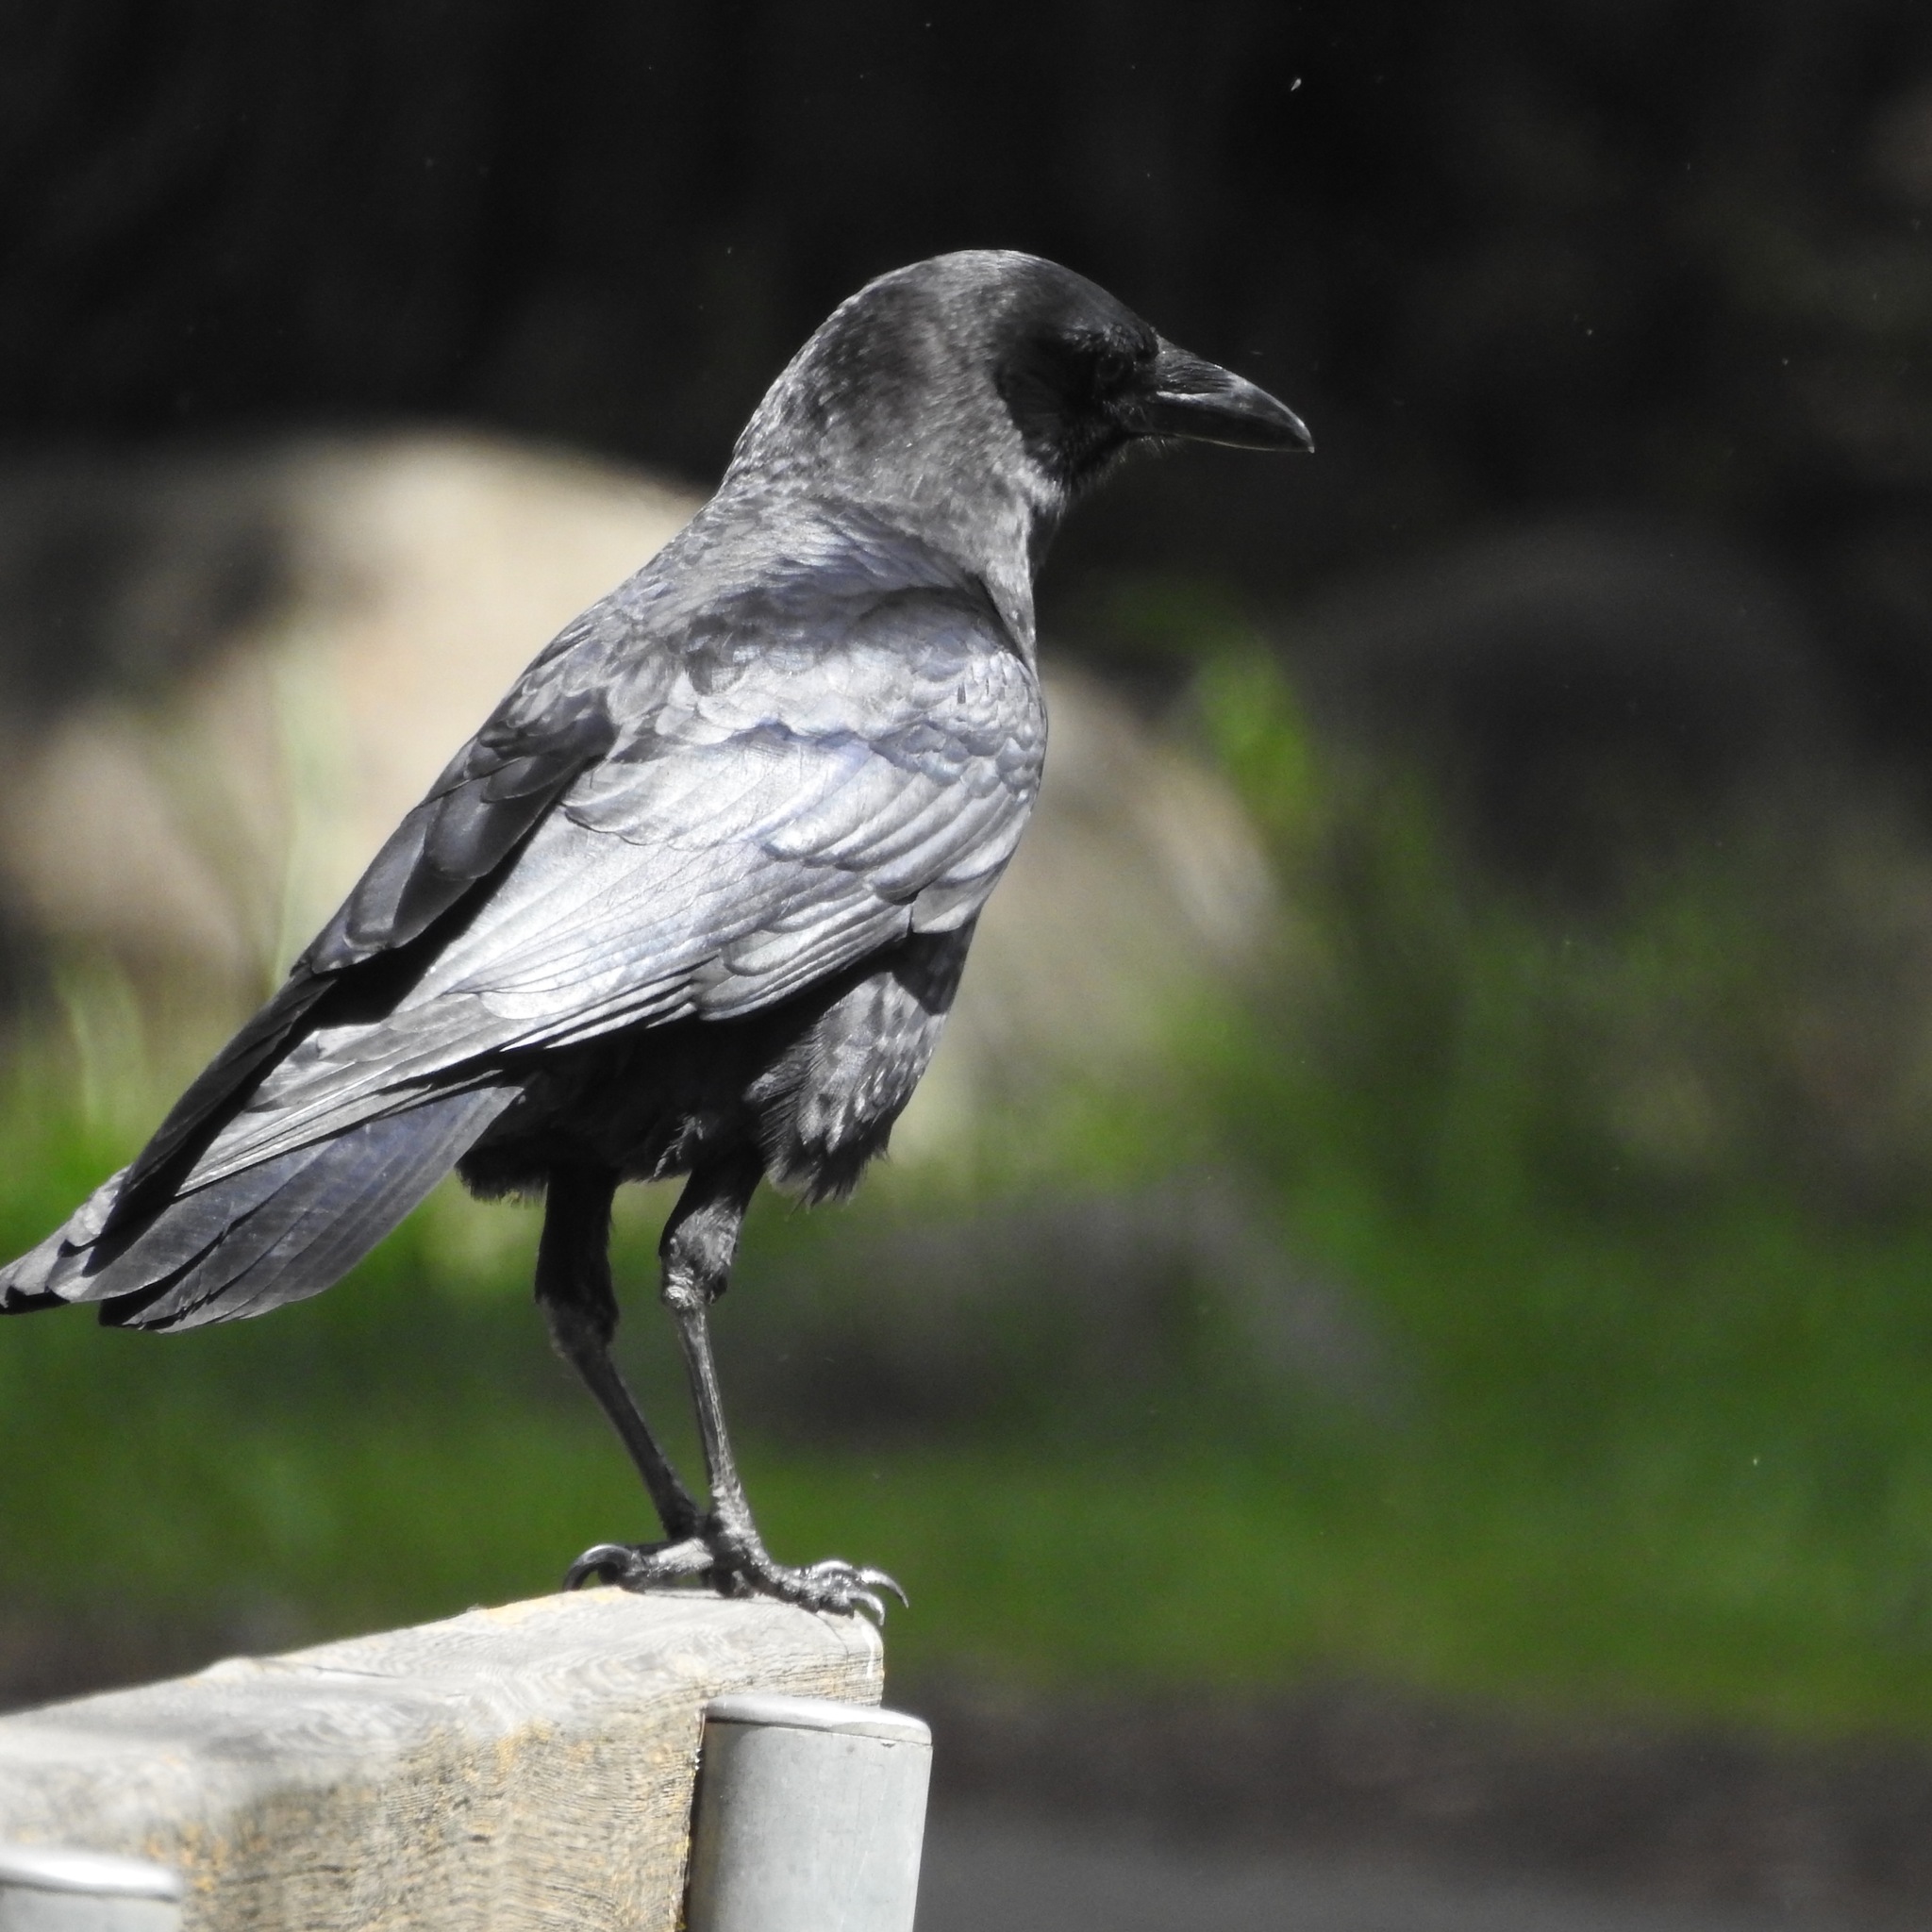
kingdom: Animalia
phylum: Chordata
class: Aves
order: Passeriformes
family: Corvidae
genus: Corvus
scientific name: Corvus brachyrhynchos
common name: American crow
